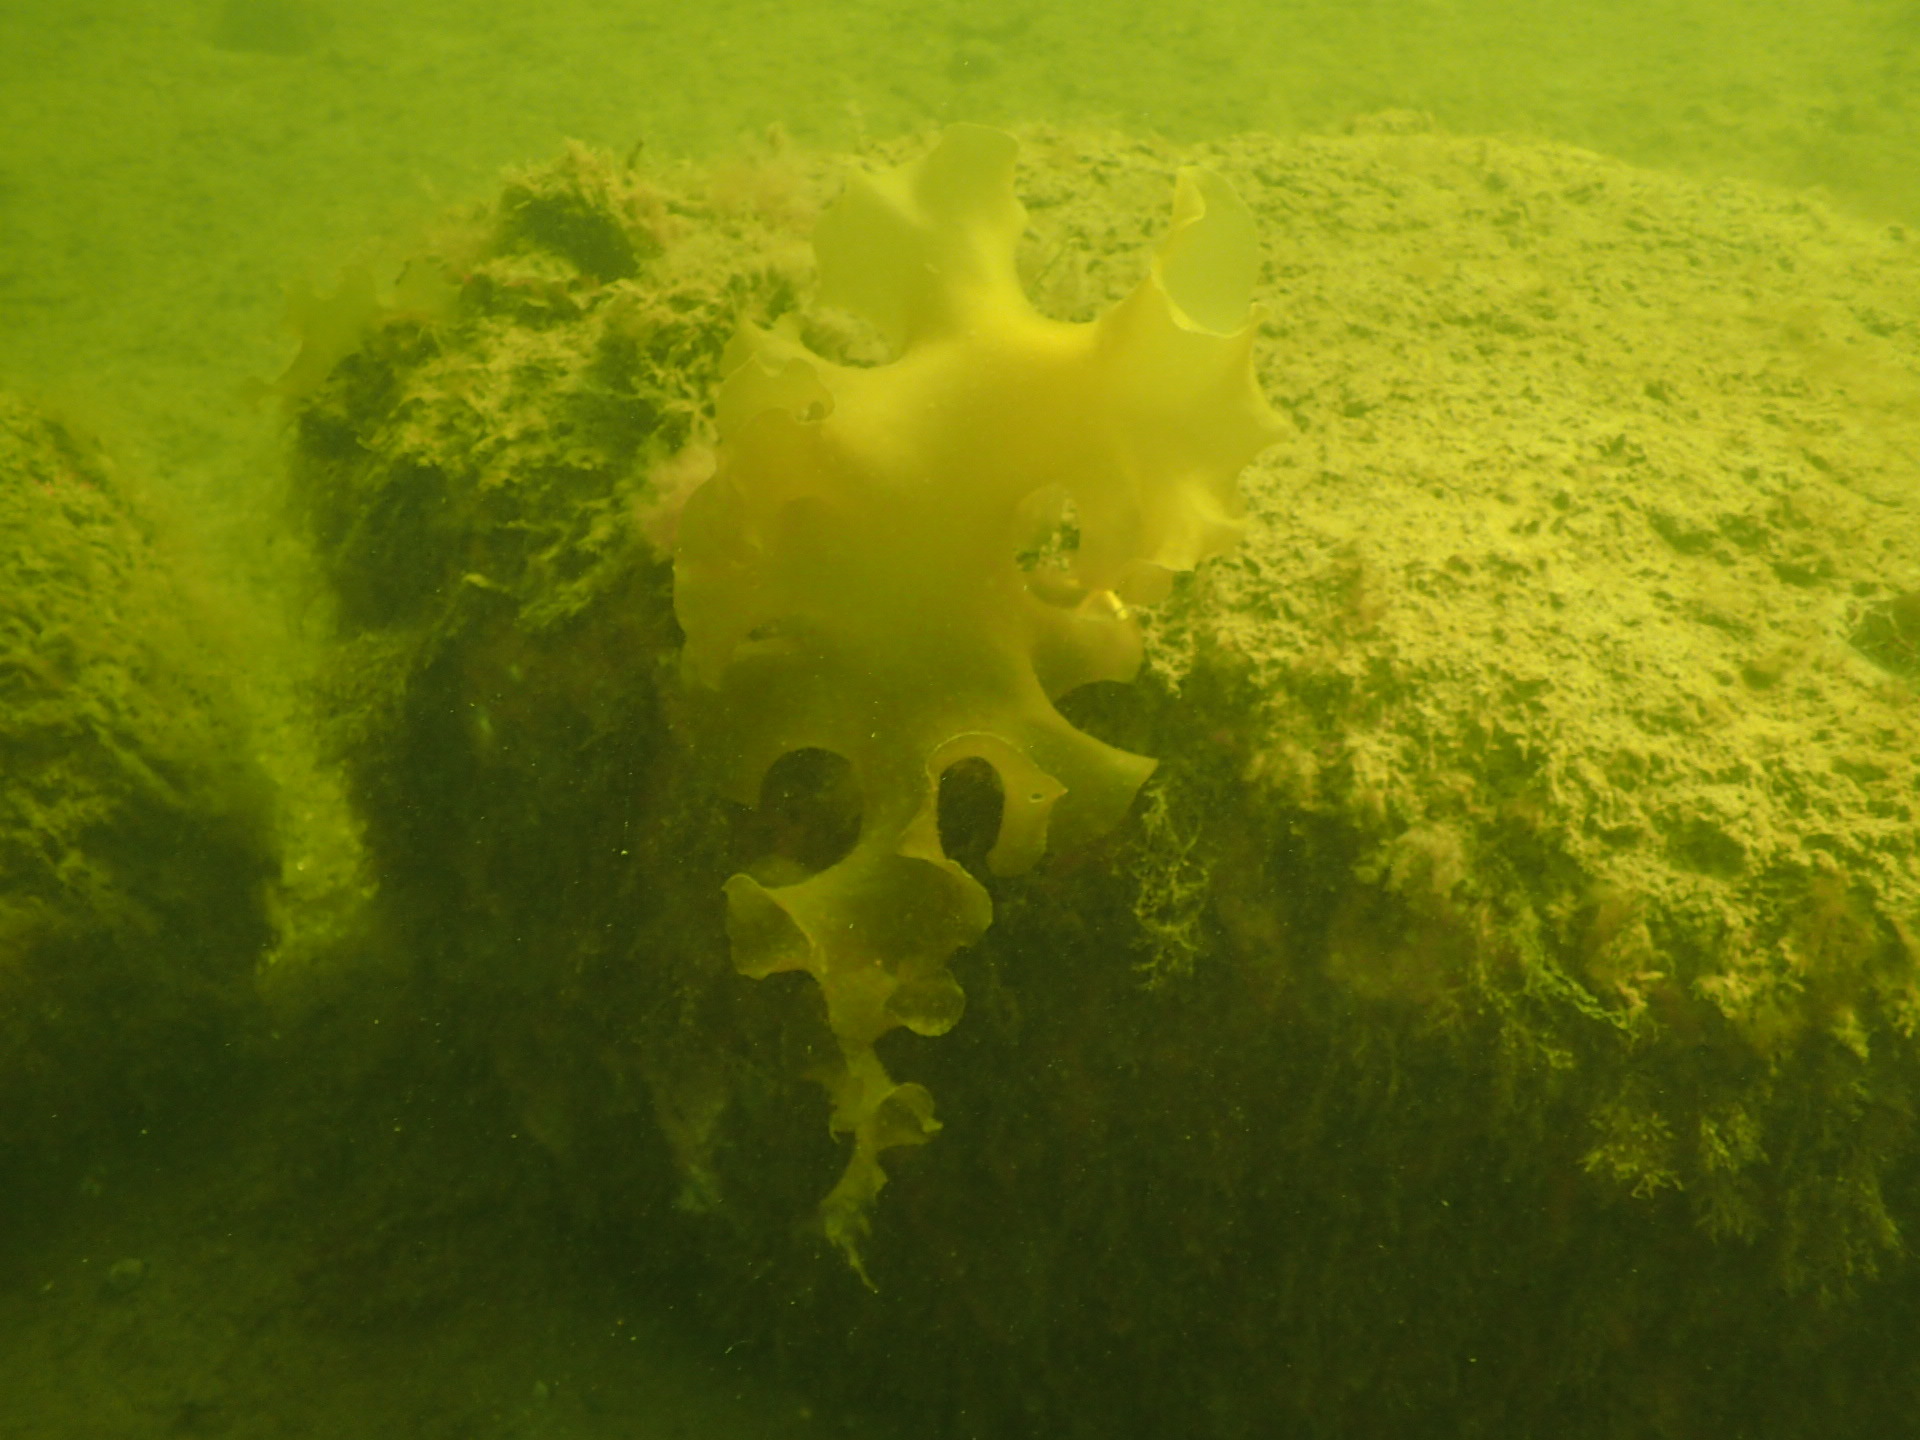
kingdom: Chromista
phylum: Ochrophyta
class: Phaeophyceae
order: Laminariales
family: Laminariaceae
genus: Saccharina
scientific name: Saccharina latissima
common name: Poor man's weather glass
